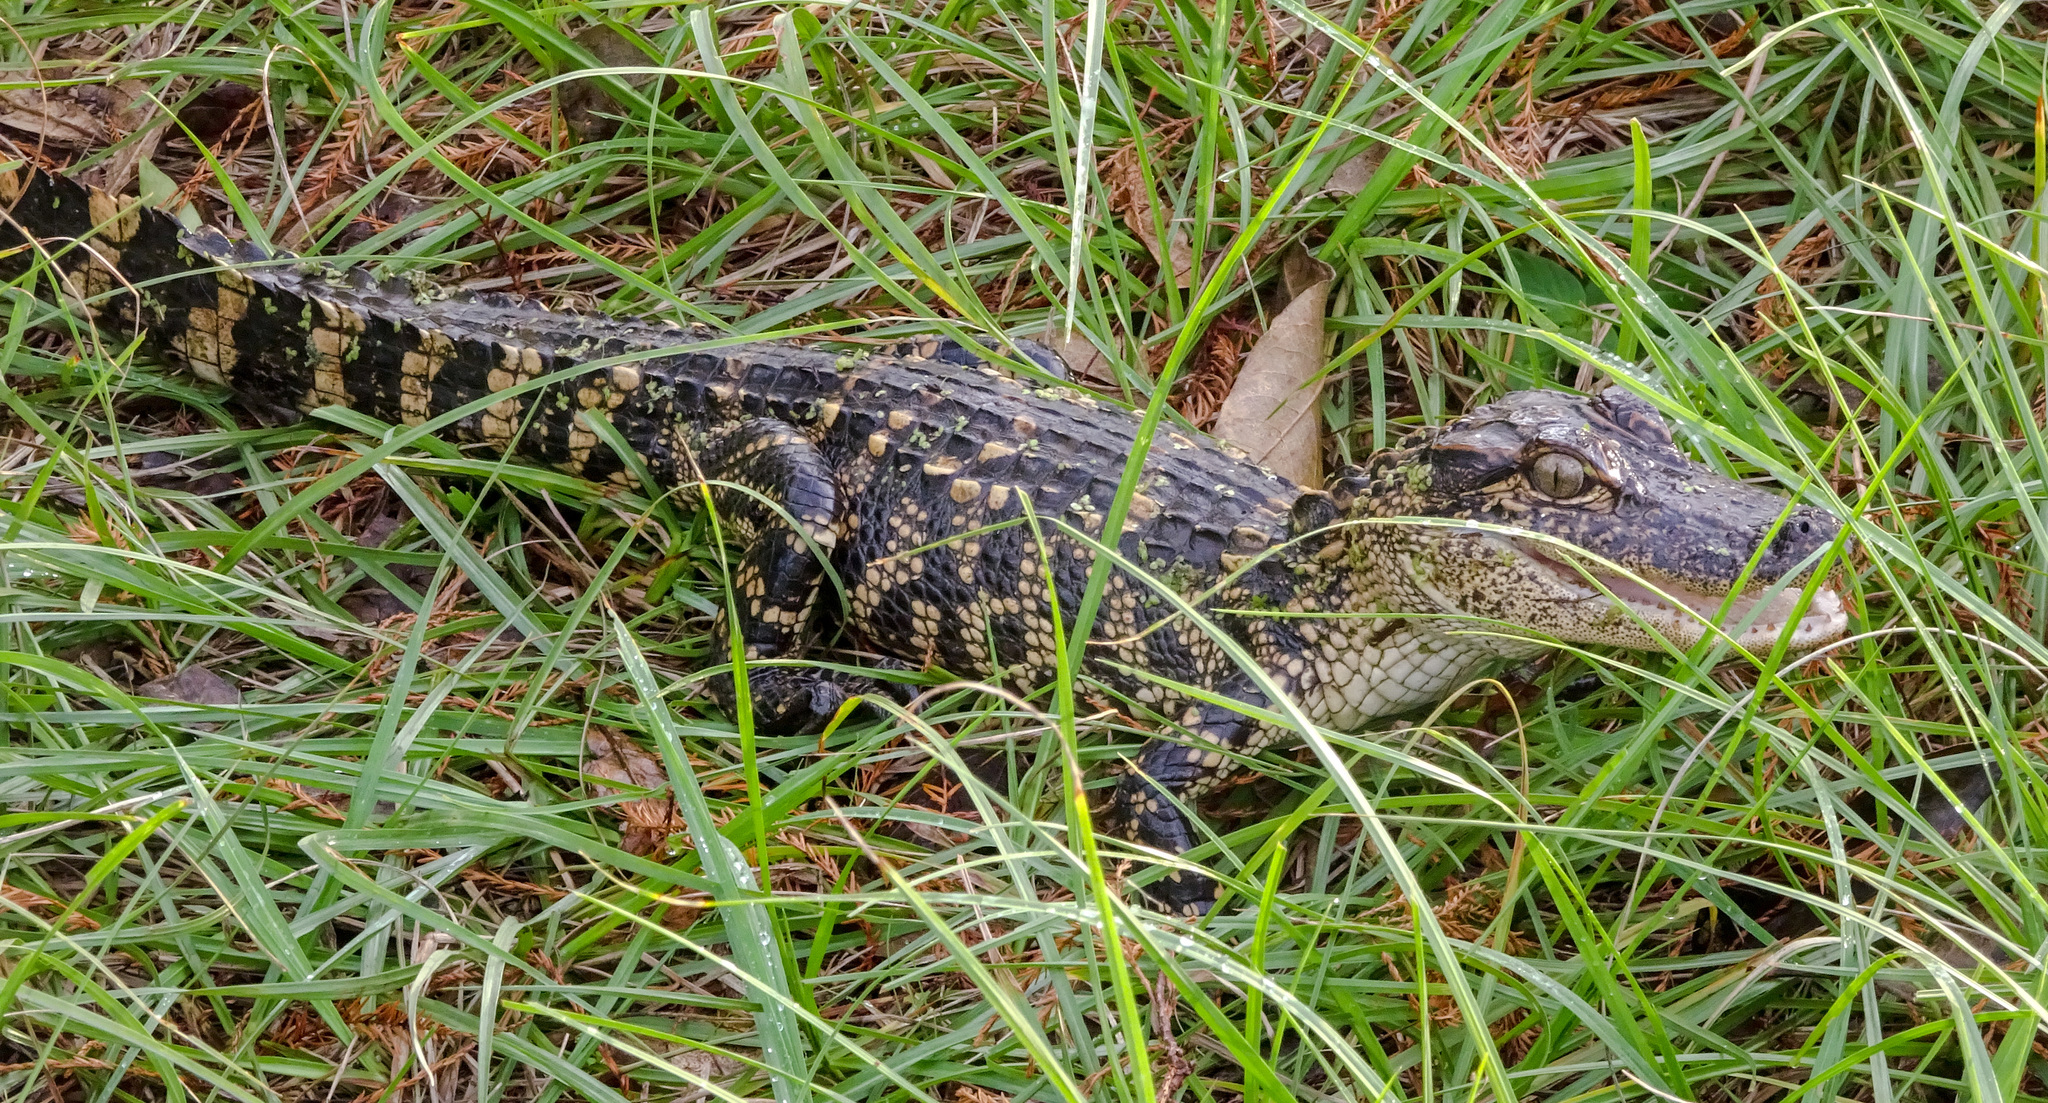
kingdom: Animalia
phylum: Chordata
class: Crocodylia
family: Alligatoridae
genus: Alligator
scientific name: Alligator mississippiensis
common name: American alligator
